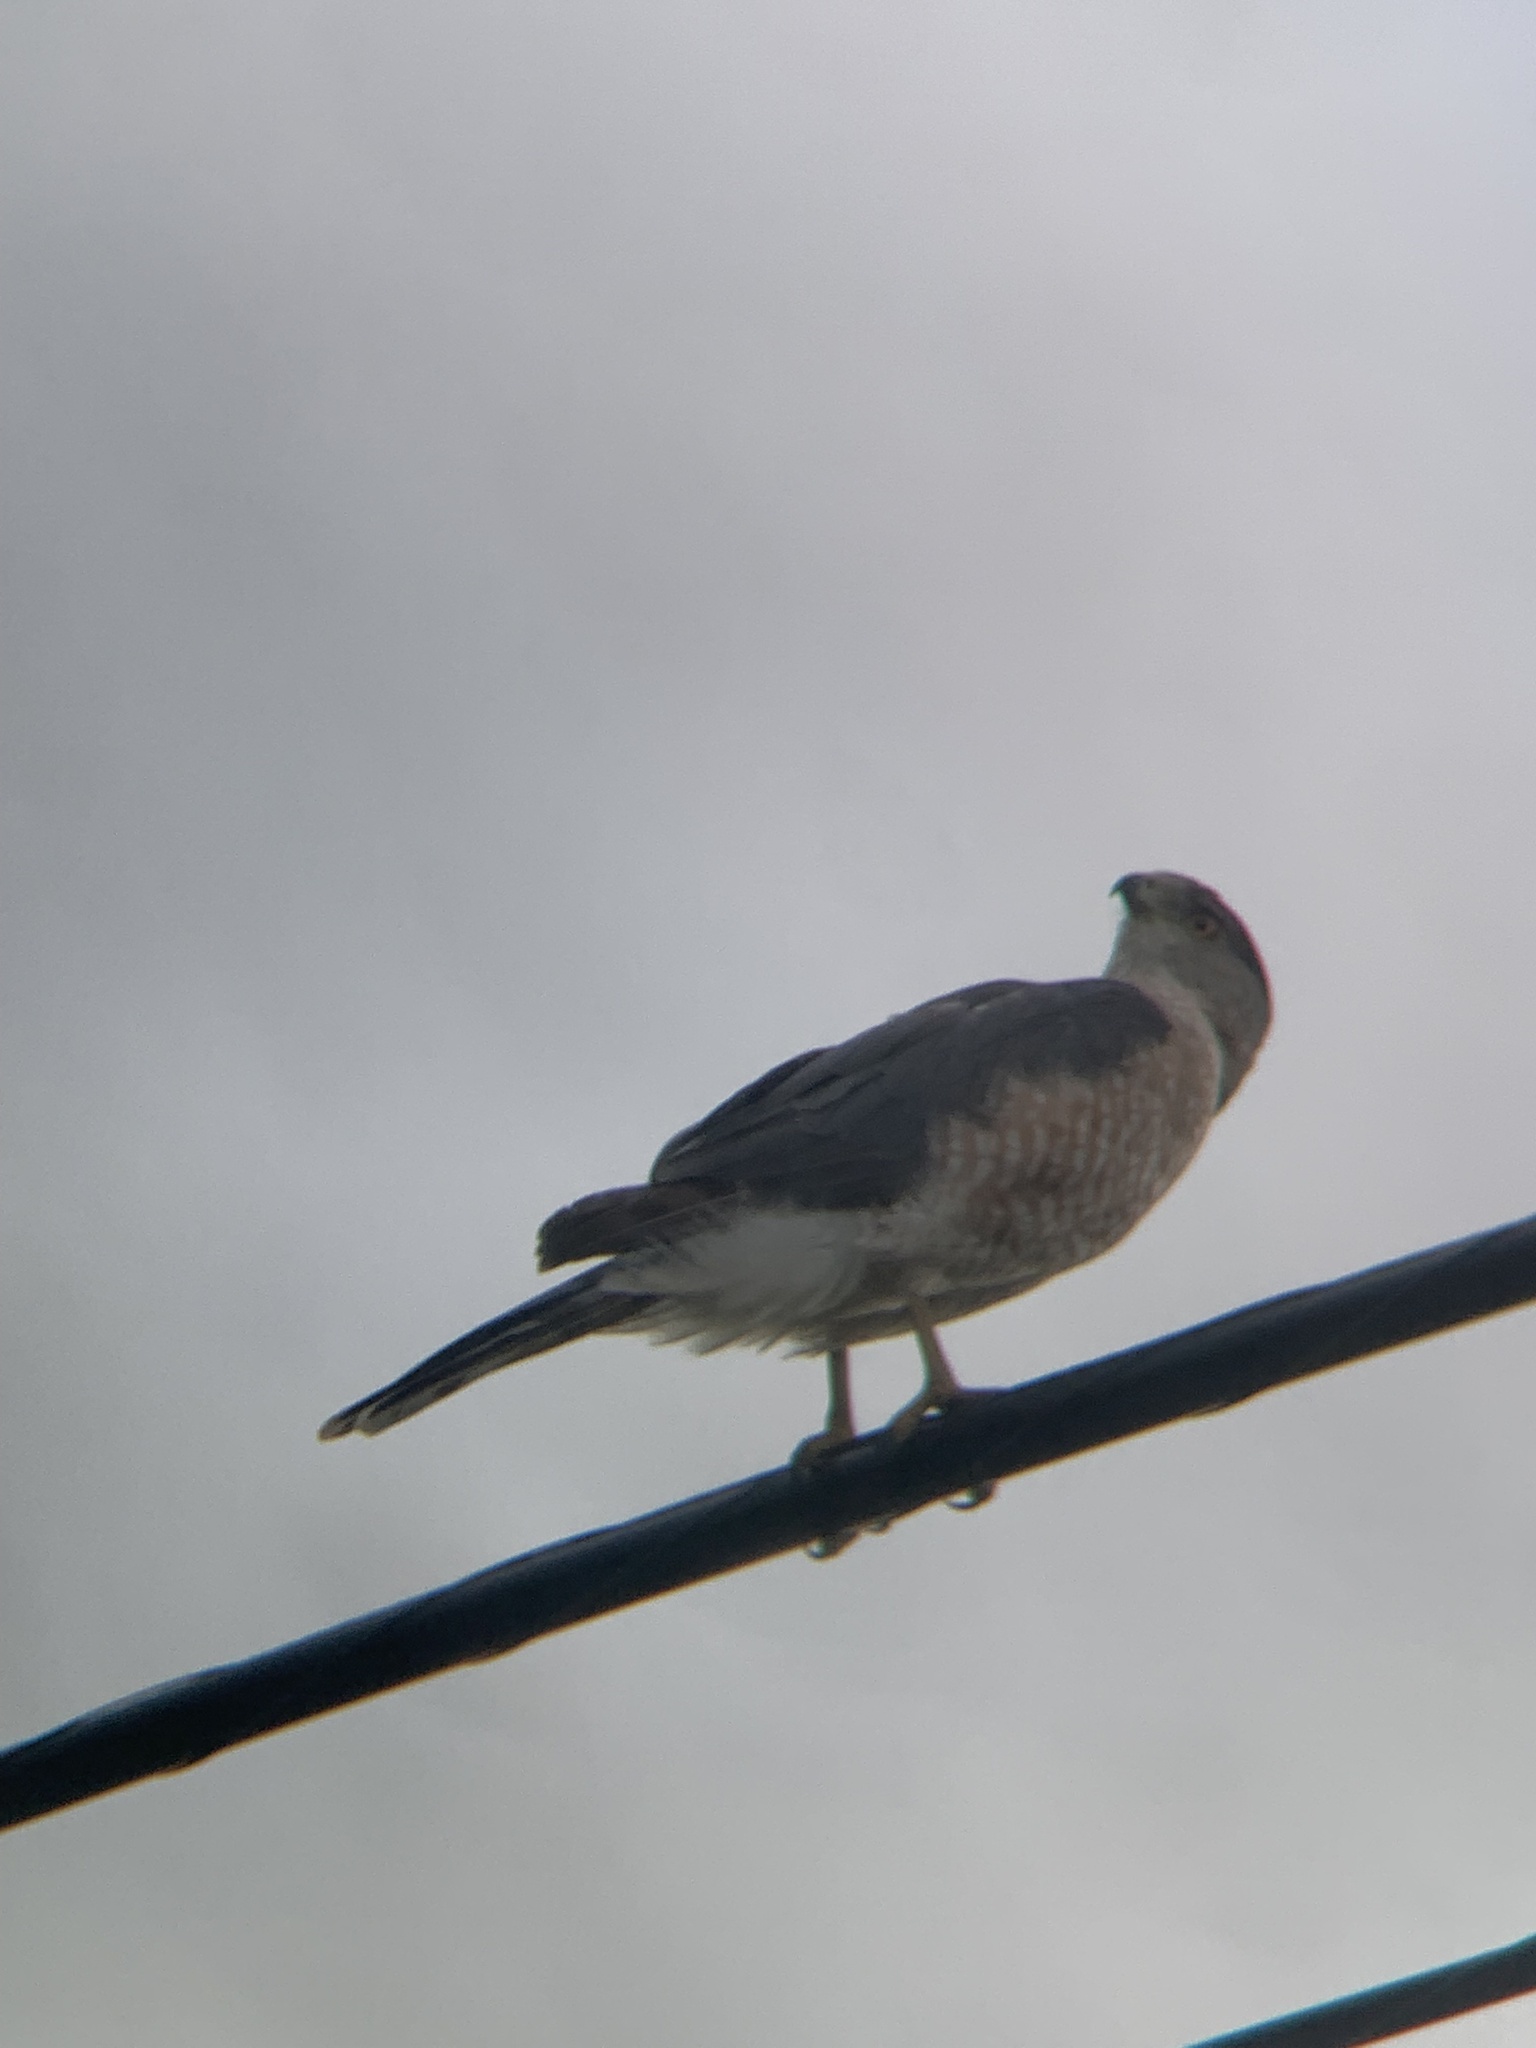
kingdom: Animalia
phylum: Chordata
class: Aves
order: Accipitriformes
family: Accipitridae
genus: Accipiter
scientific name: Accipiter cooperii
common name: Cooper's hawk
